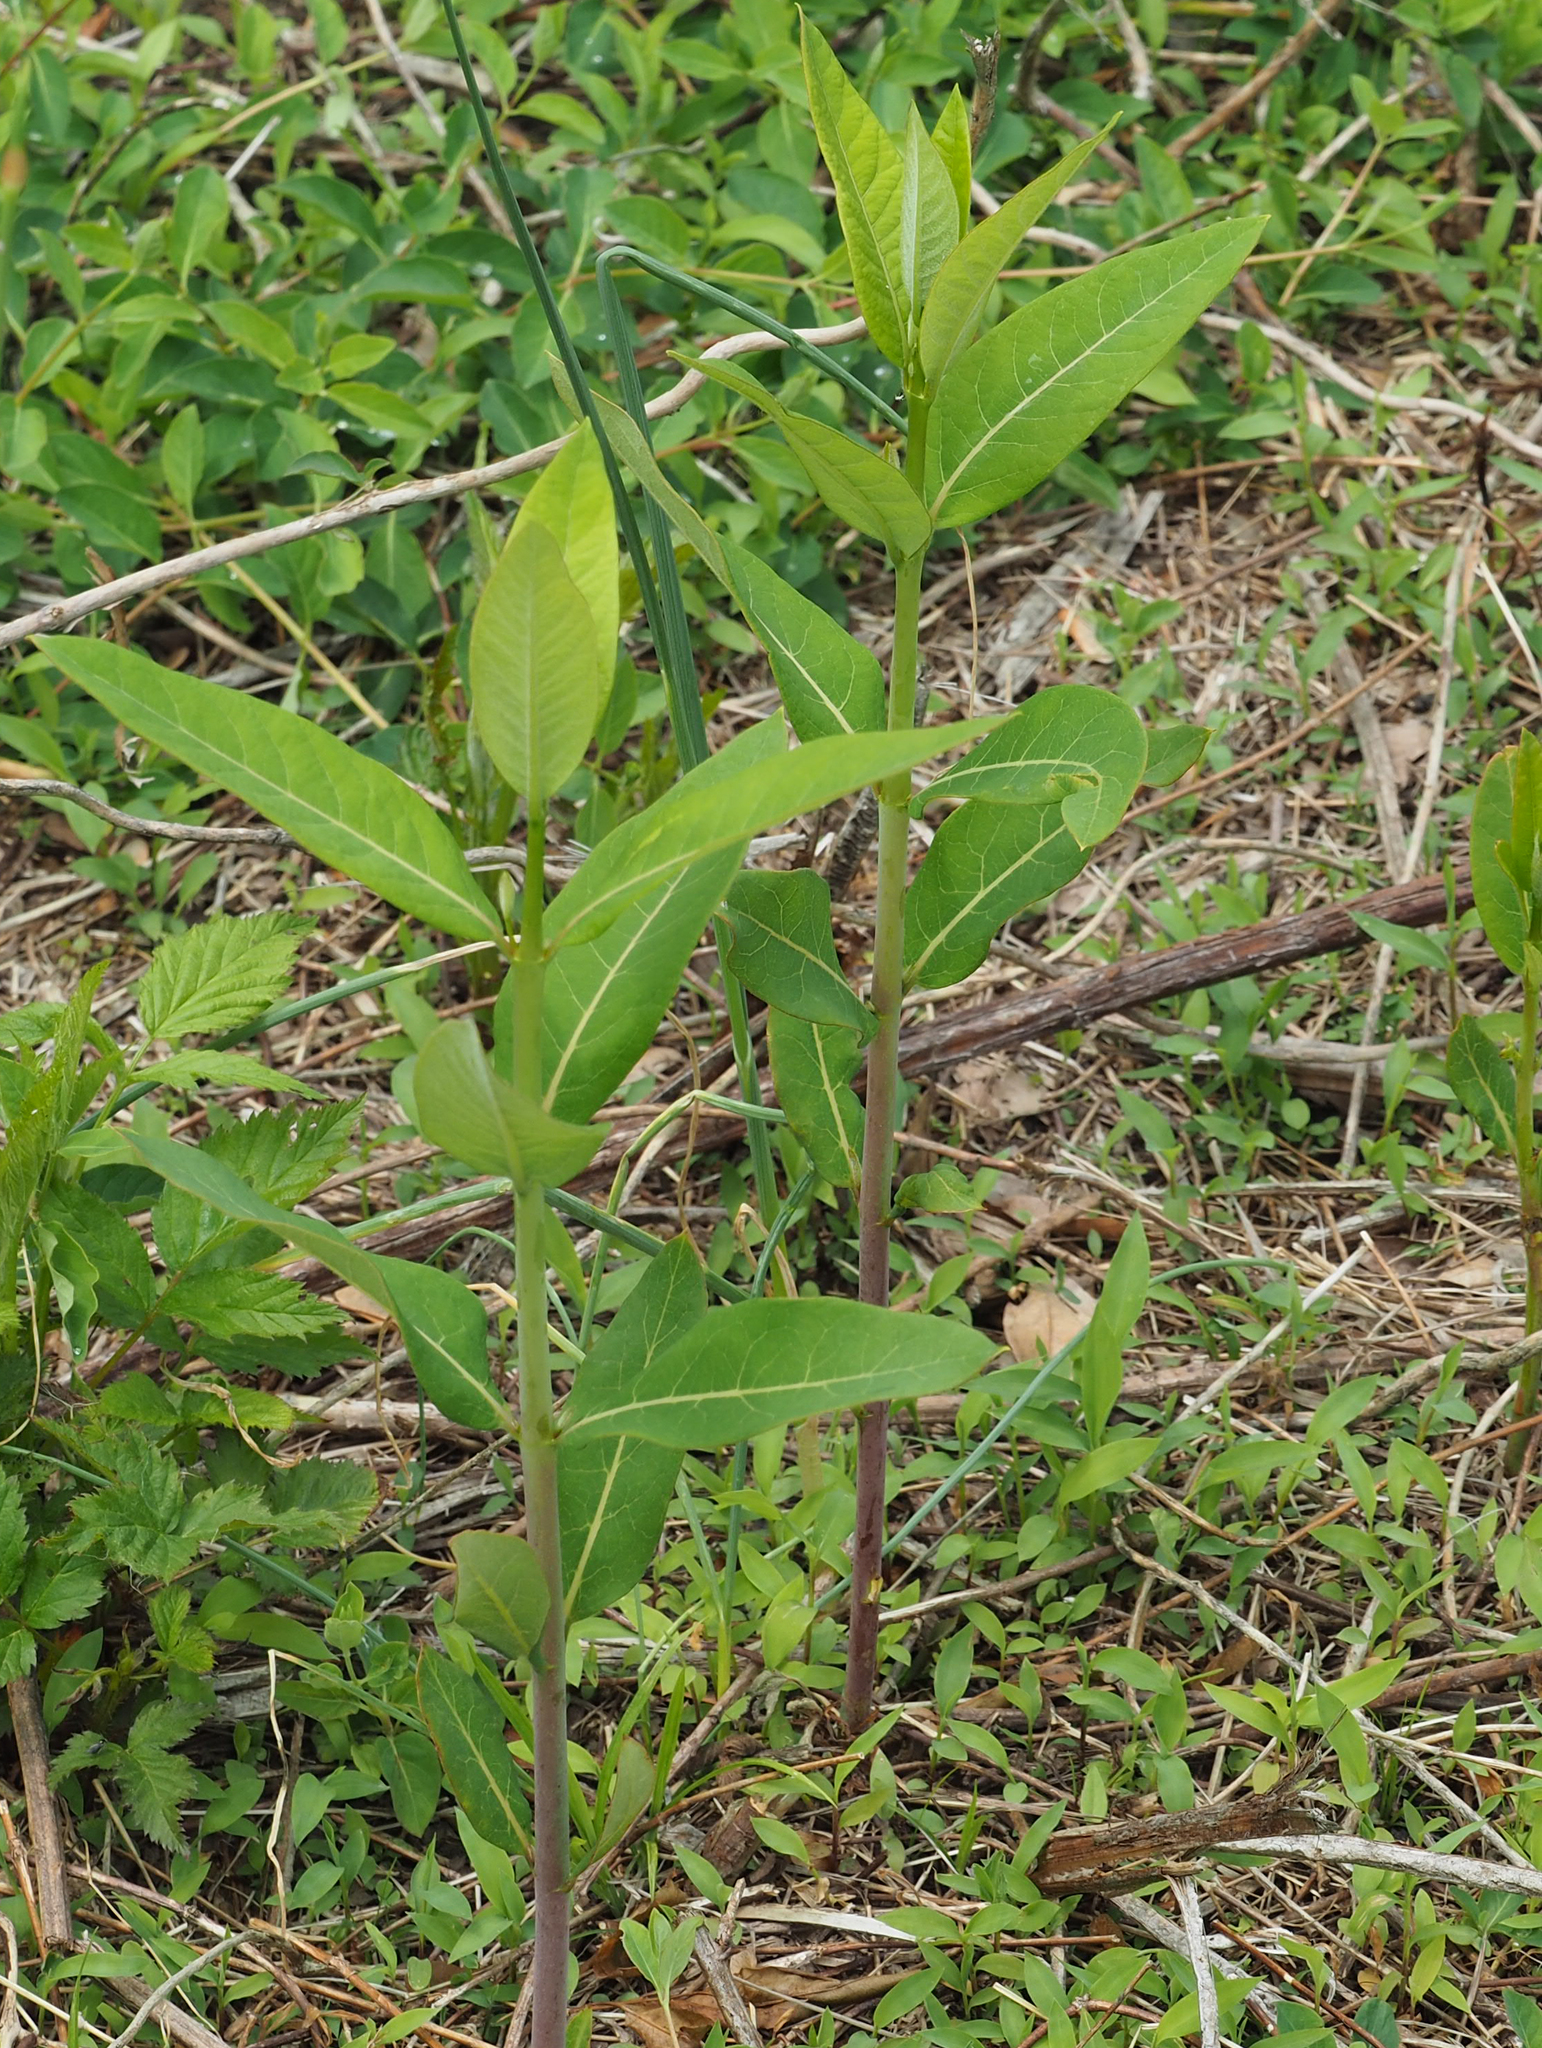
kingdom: Plantae
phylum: Tracheophyta
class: Magnoliopsida
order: Gentianales
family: Apocynaceae
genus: Apocynum
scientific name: Apocynum cannabinum
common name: Hemp dogbane
